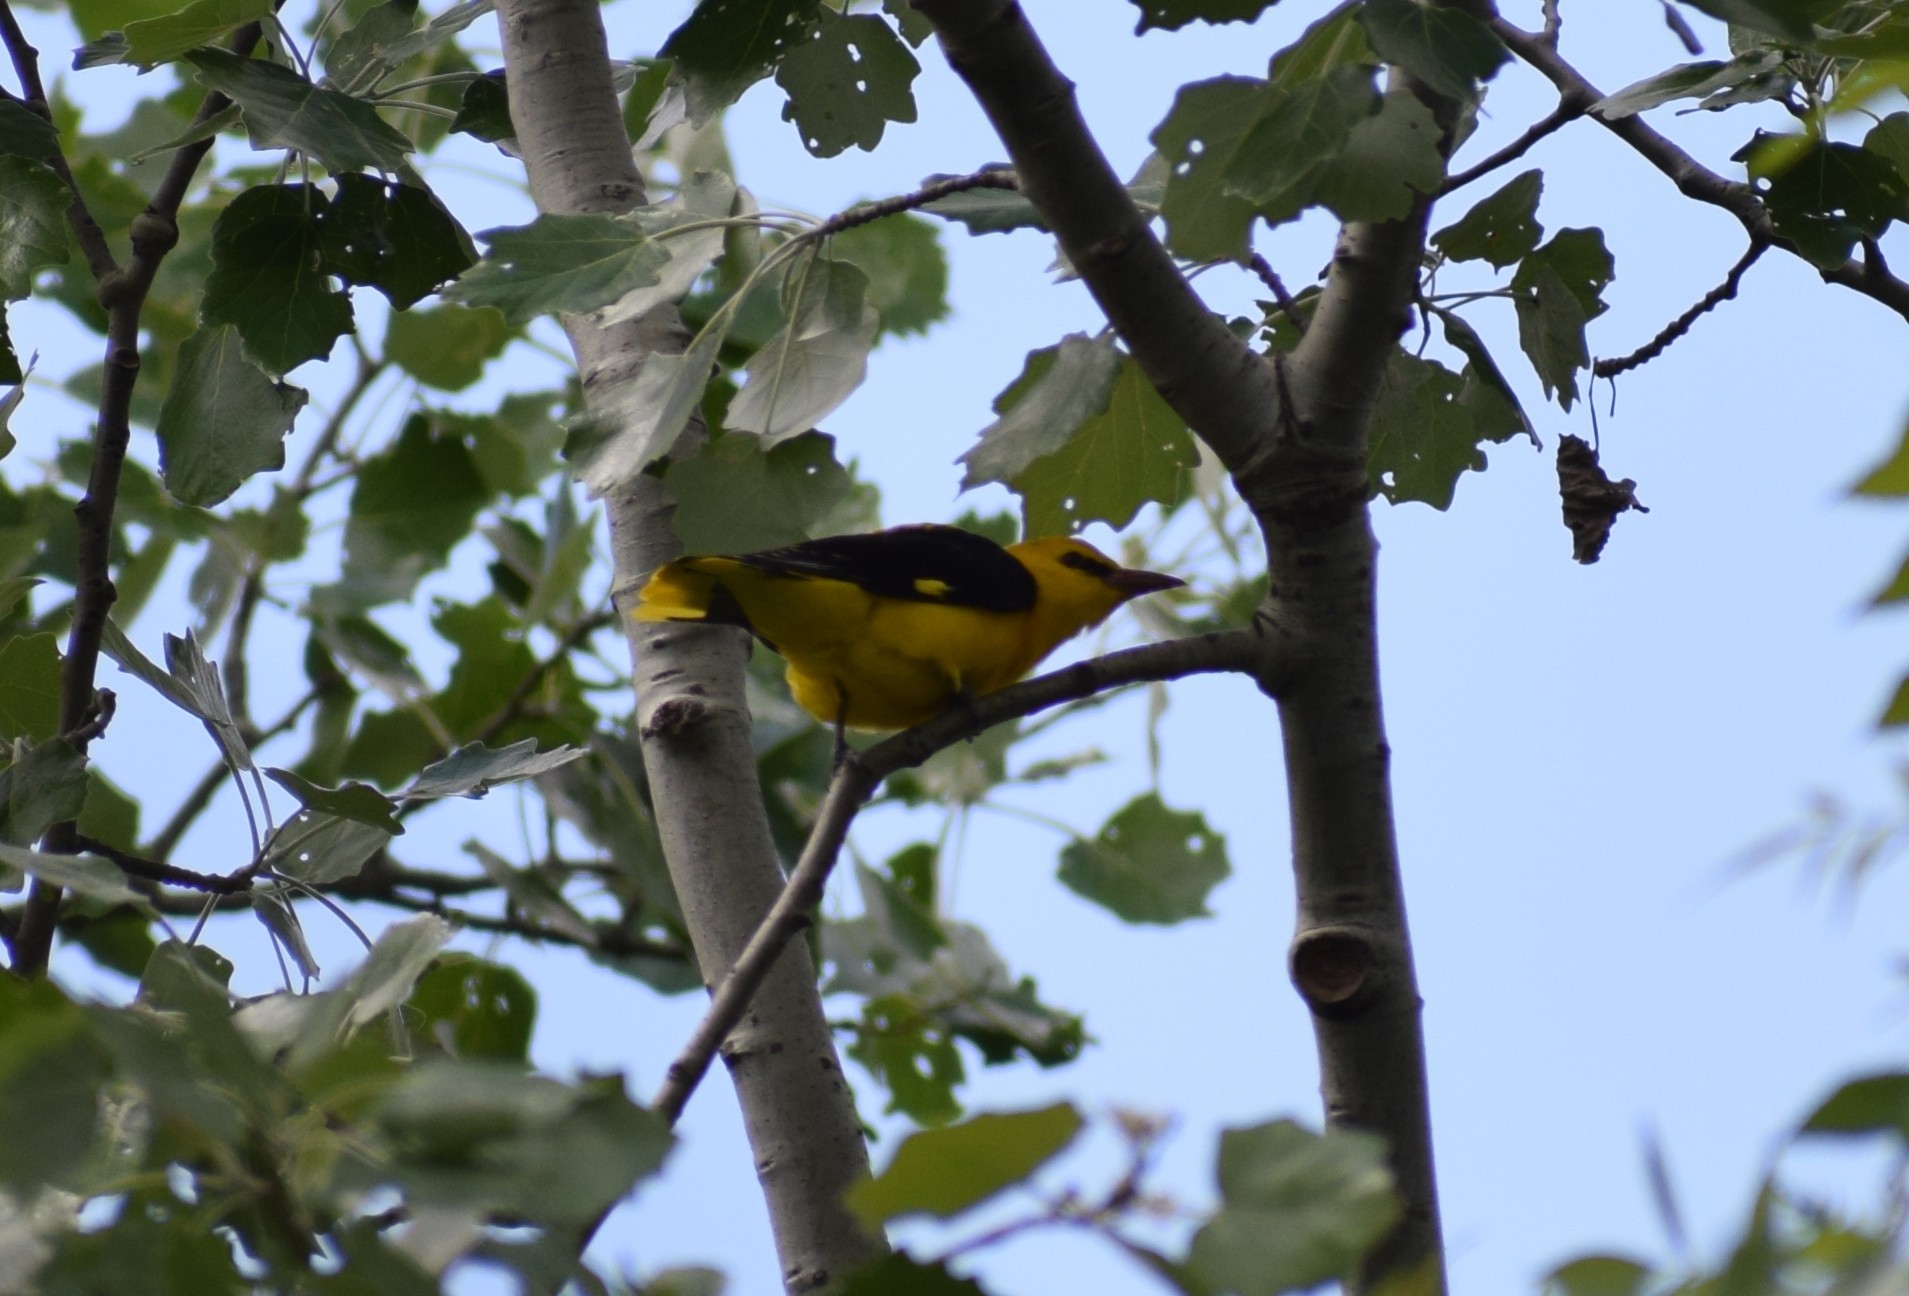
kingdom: Animalia
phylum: Chordata
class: Aves
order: Passeriformes
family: Oriolidae
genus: Oriolus
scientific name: Oriolus oriolus
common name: Eurasian golden oriole
